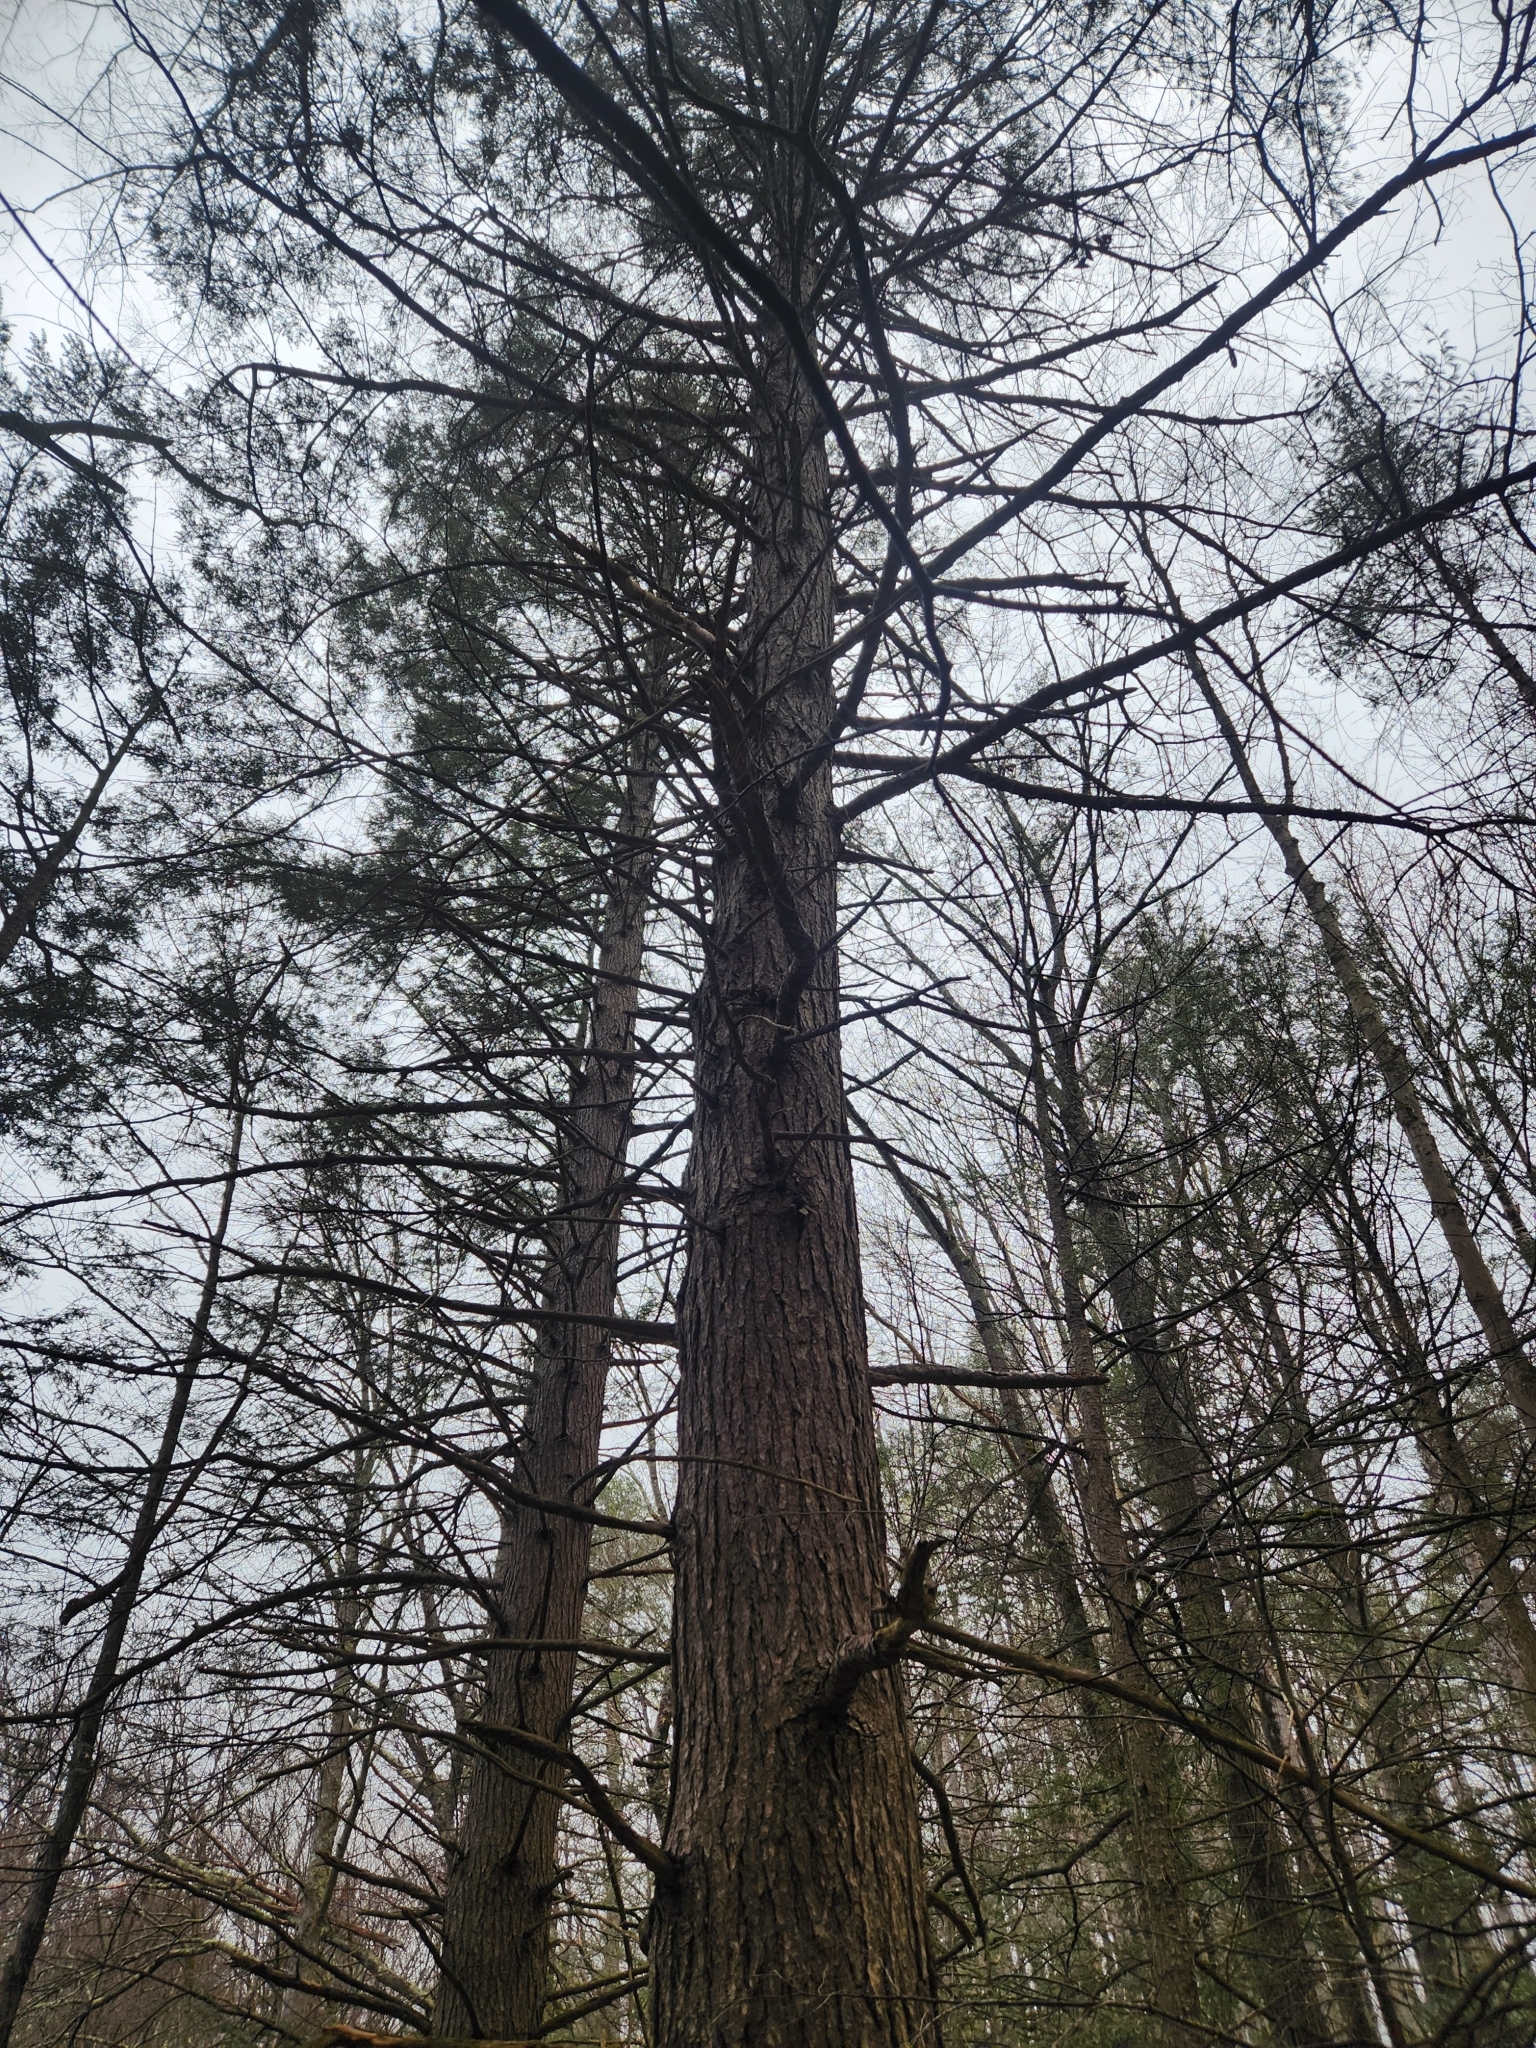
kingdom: Plantae
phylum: Tracheophyta
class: Pinopsida
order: Pinales
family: Pinaceae
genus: Tsuga
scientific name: Tsuga canadensis
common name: Eastern hemlock
